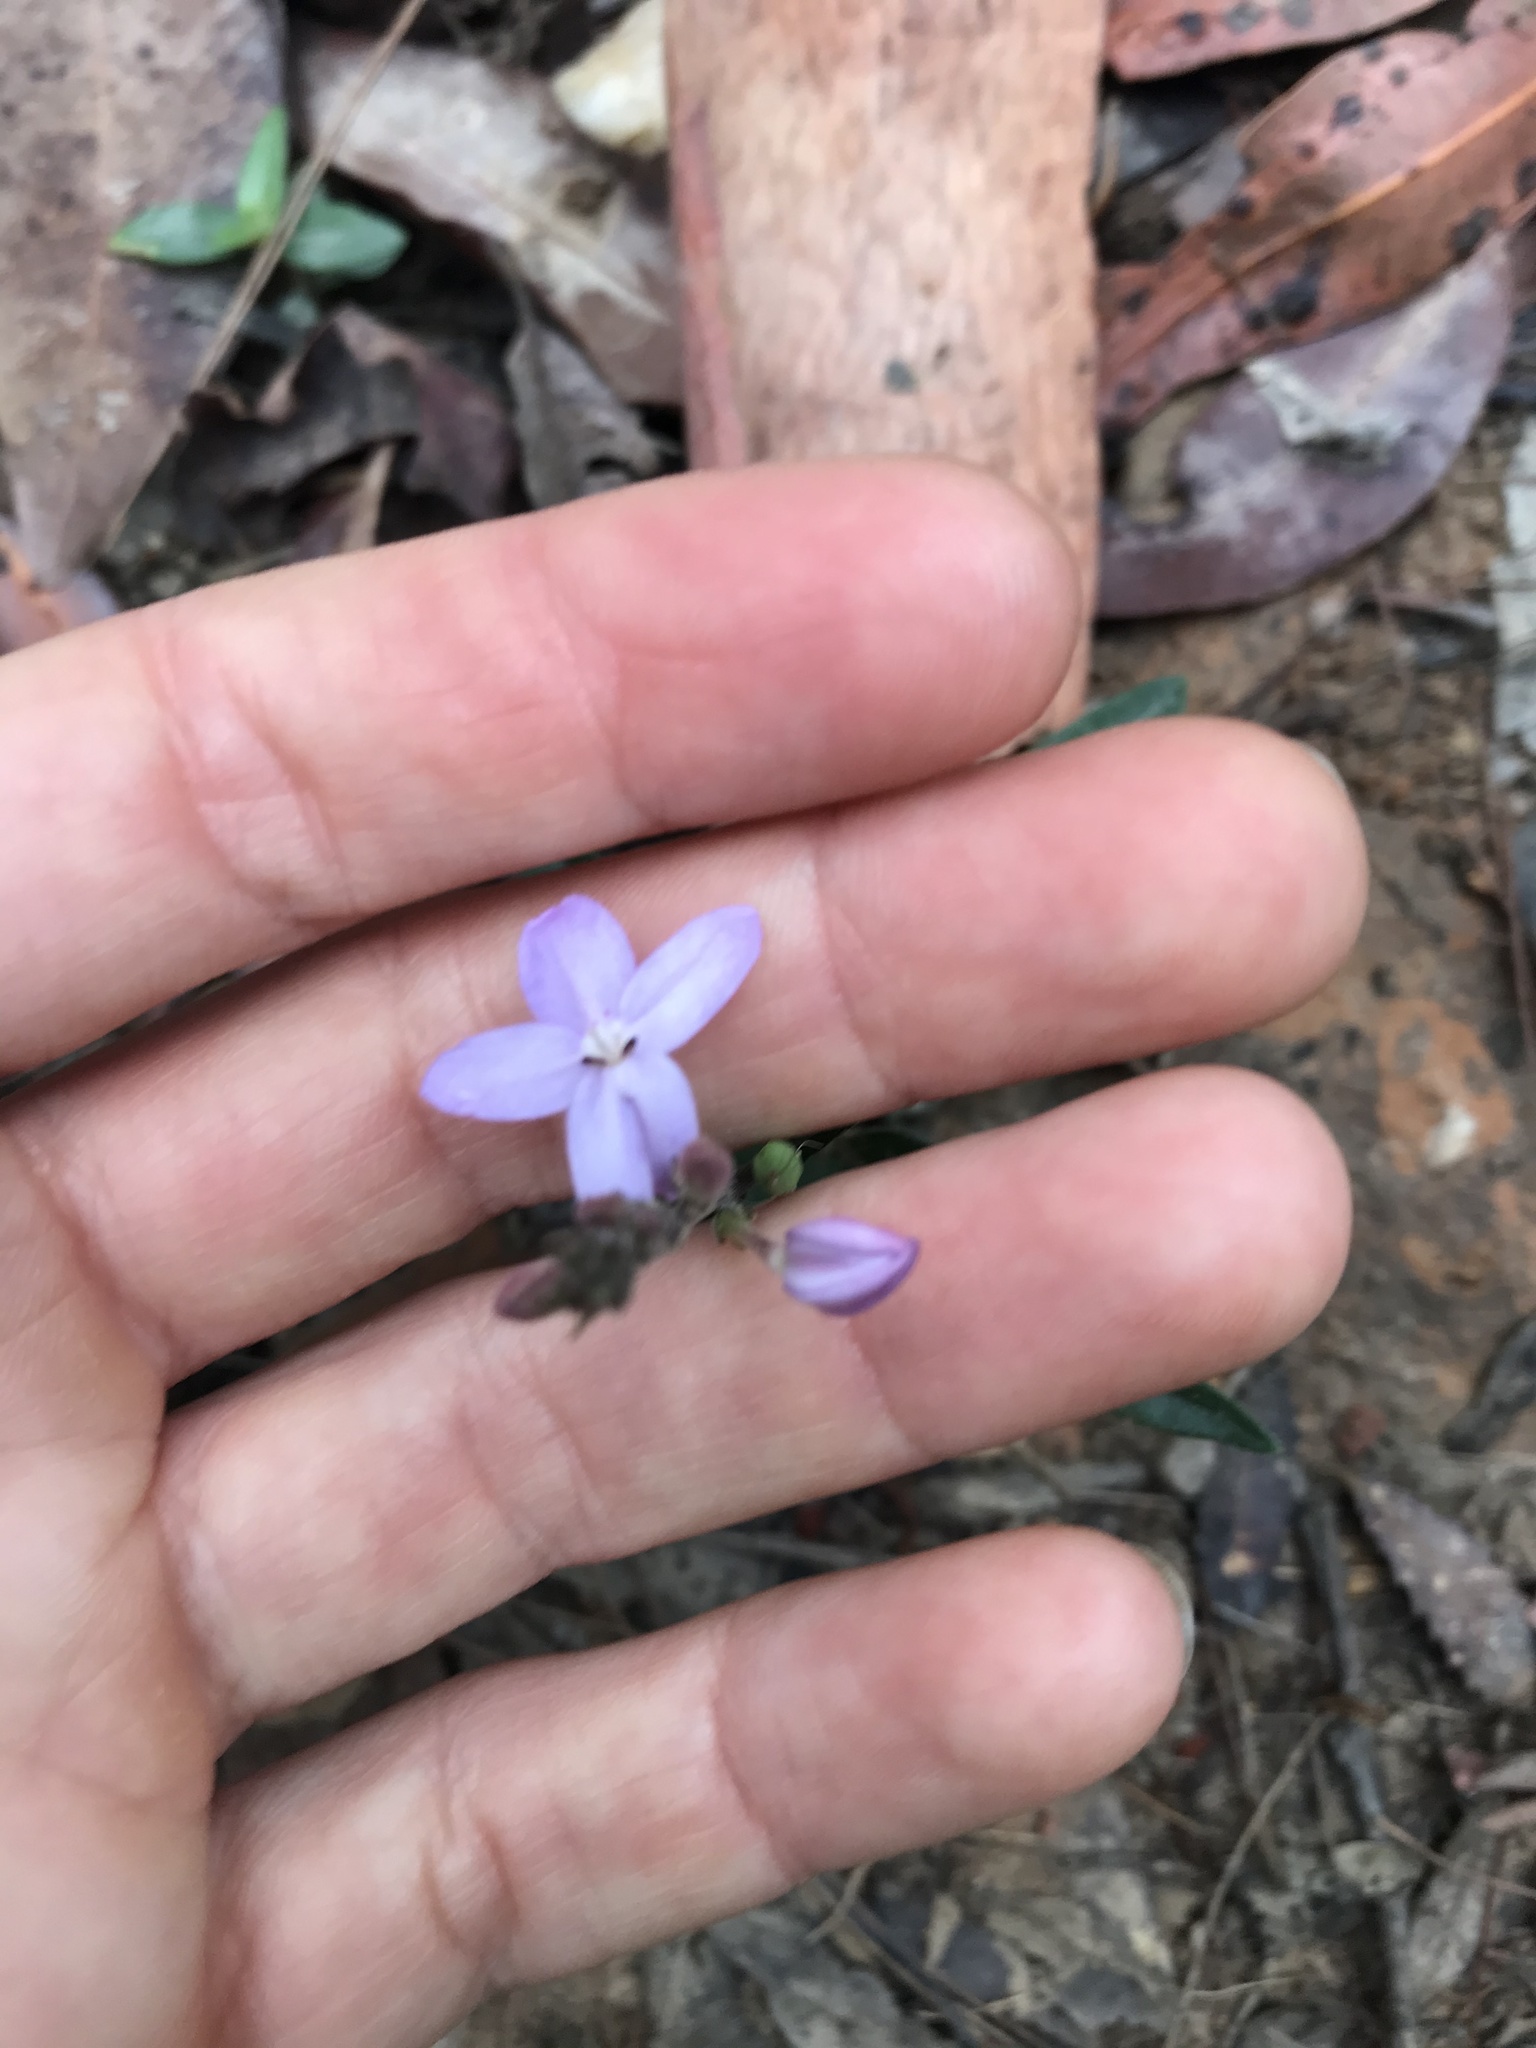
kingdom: Plantae
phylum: Tracheophyta
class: Magnoliopsida
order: Lamiales
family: Acanthaceae
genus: Pseuderanthemum
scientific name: Pseuderanthemum variabile
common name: Night and afternoon
